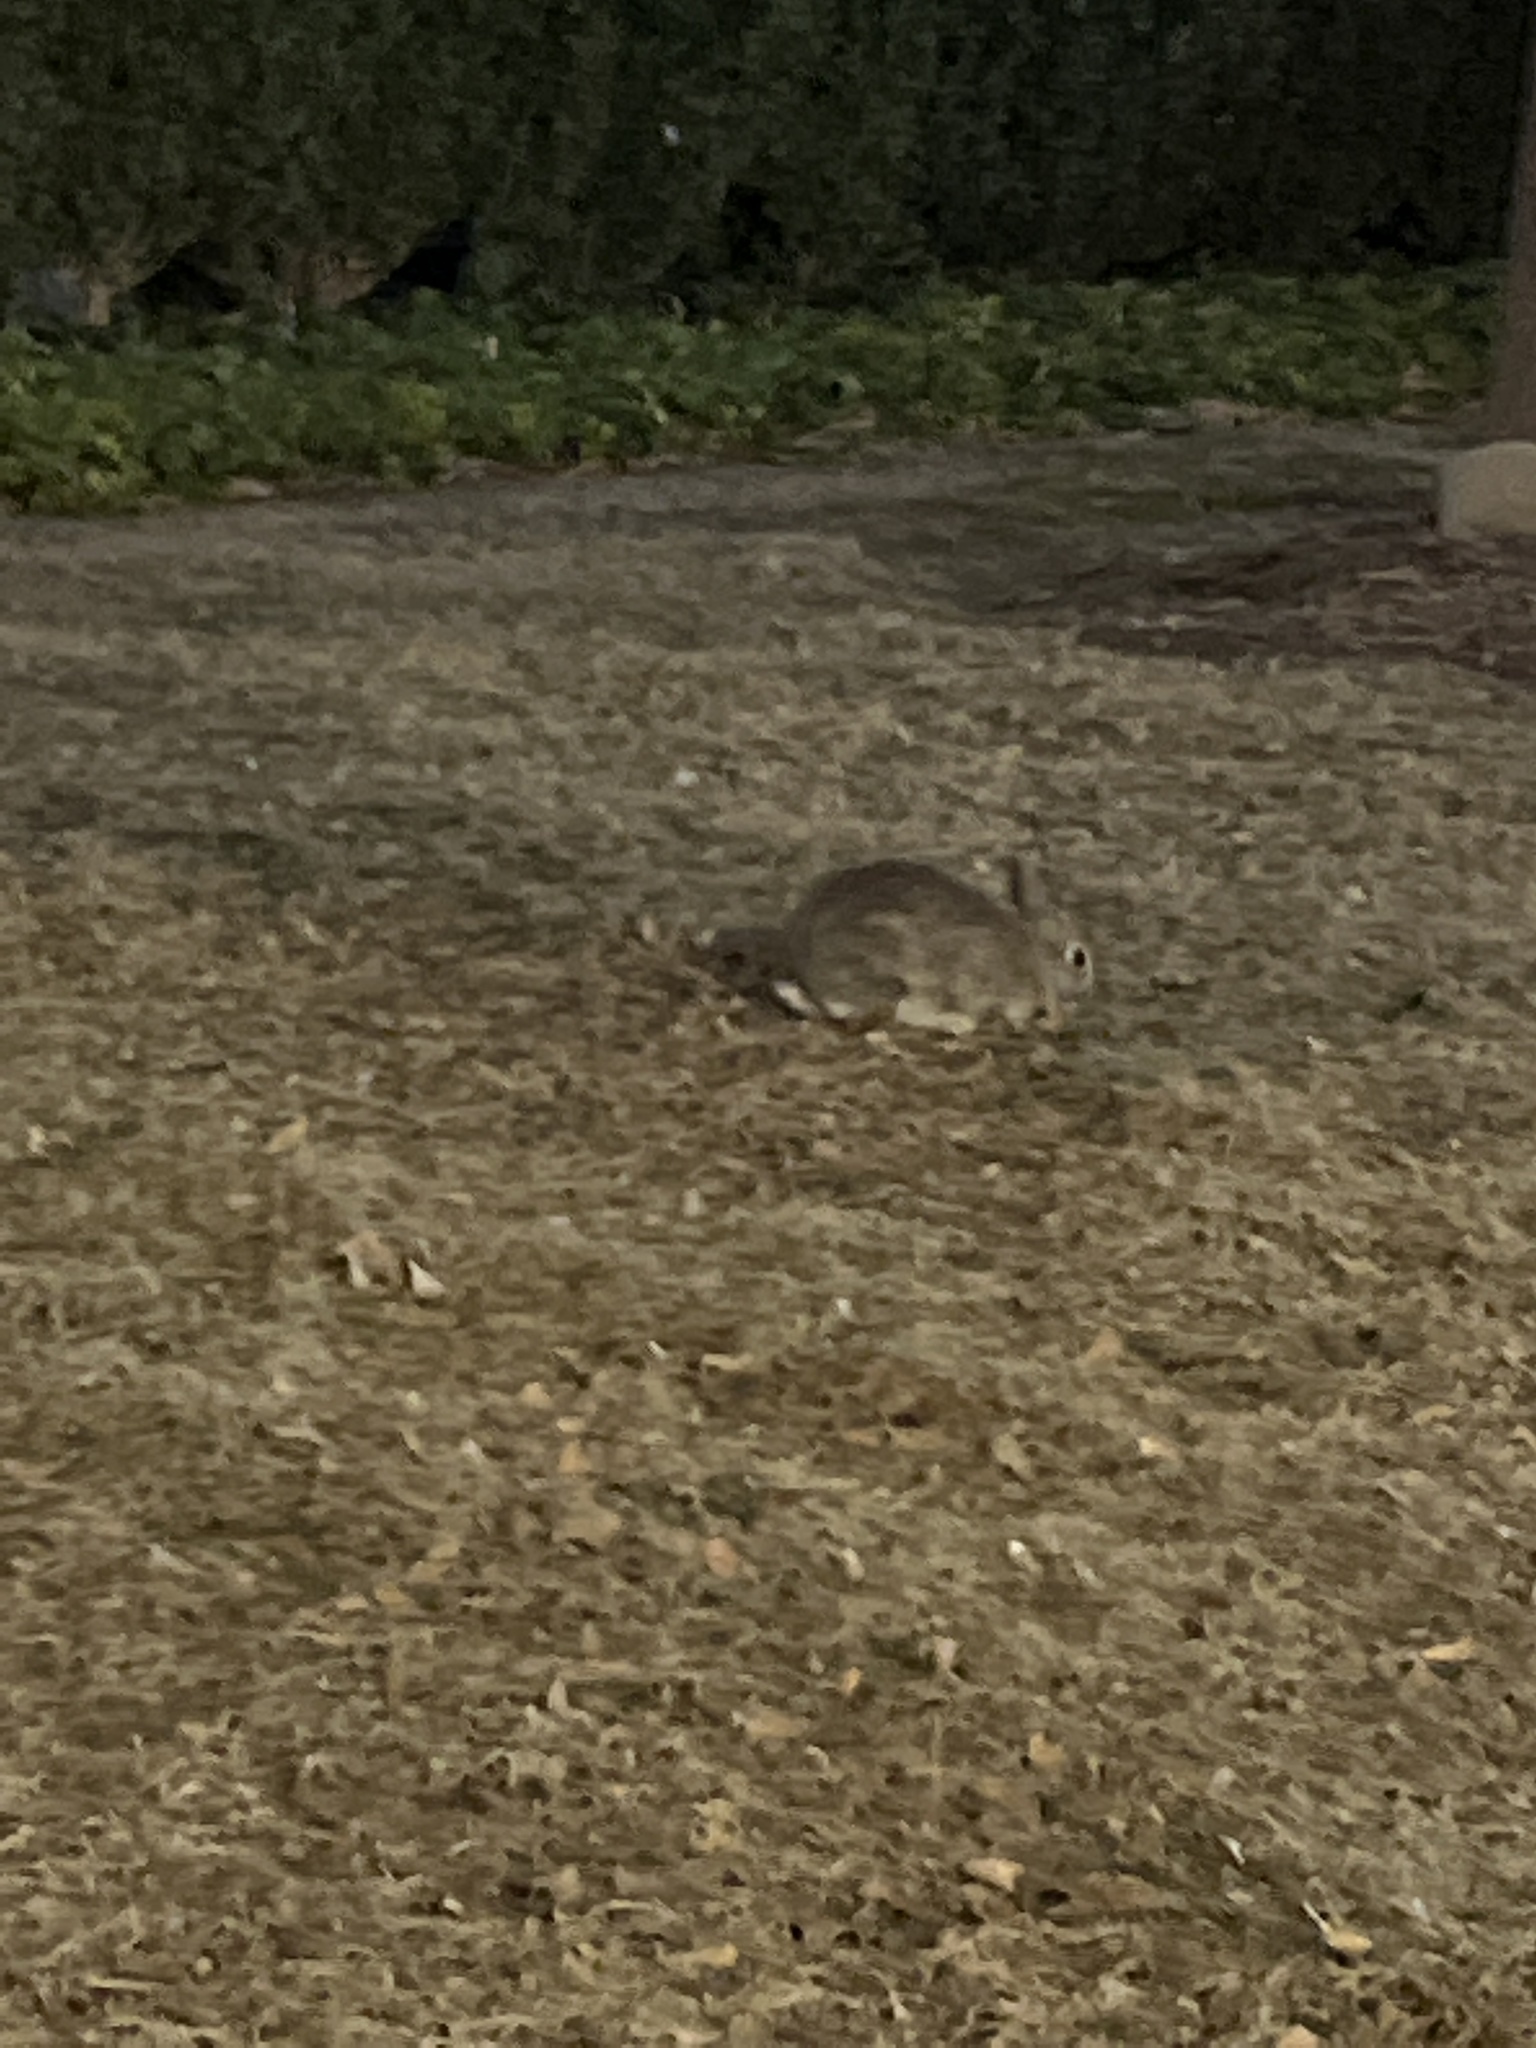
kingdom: Animalia
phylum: Chordata
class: Mammalia
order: Lagomorpha
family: Leporidae
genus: Sylvilagus
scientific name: Sylvilagus floridanus
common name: Eastern cottontail
